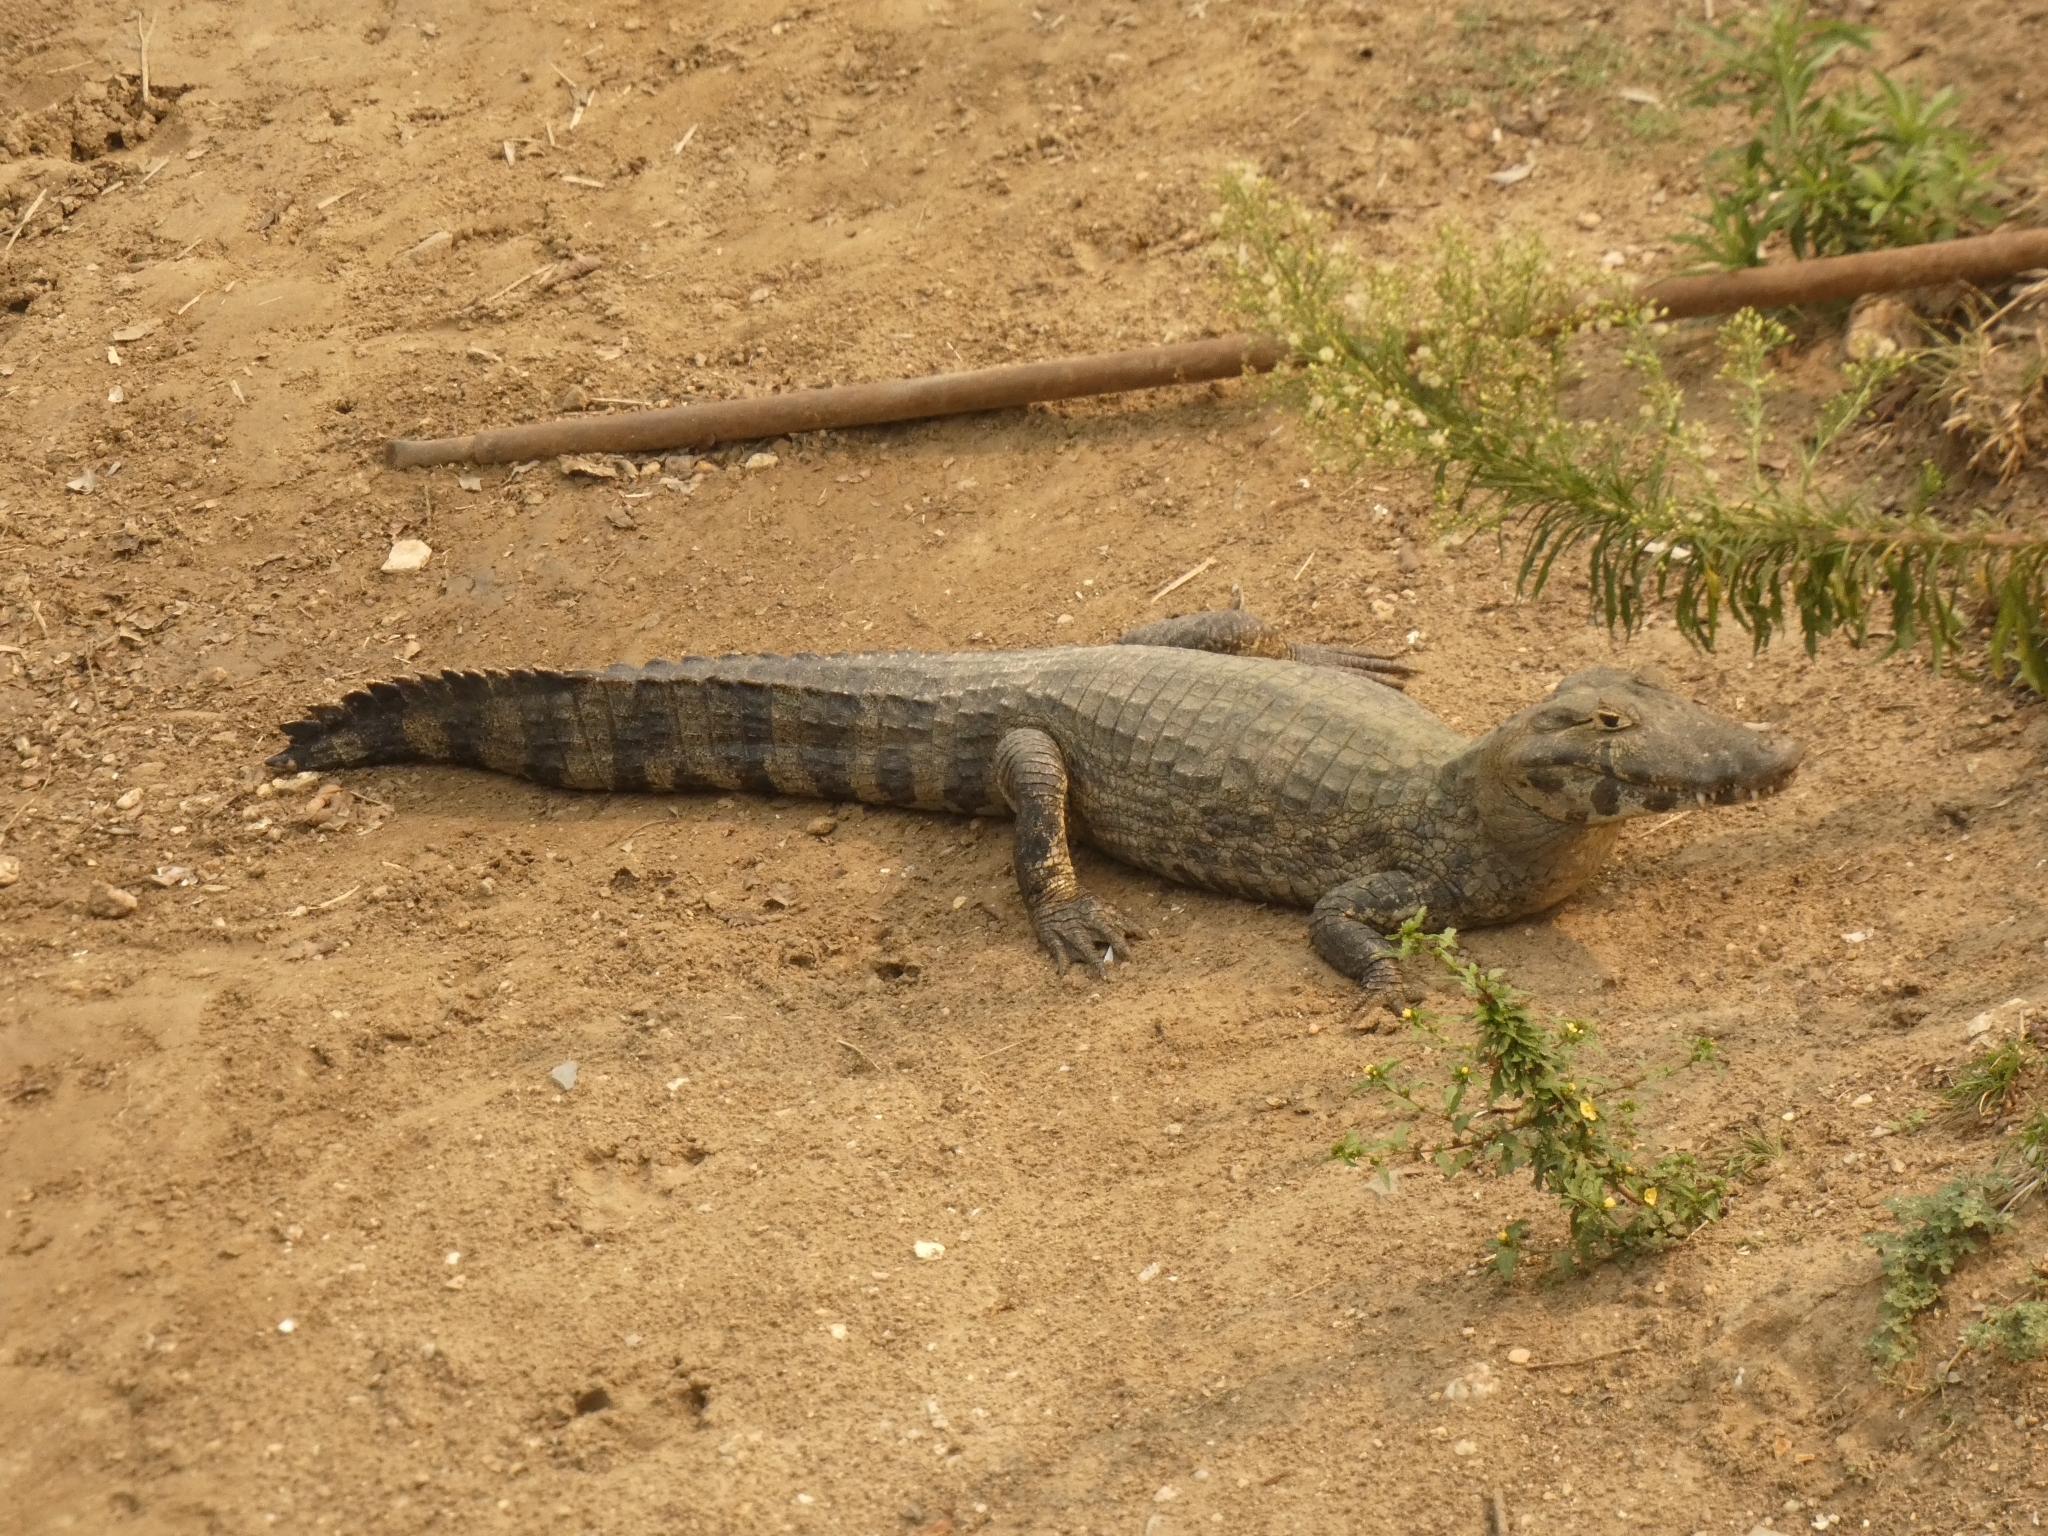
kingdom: Animalia
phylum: Chordata
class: Crocodylia
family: Alligatoridae
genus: Caiman
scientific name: Caiman yacare
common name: Yacare caiman
